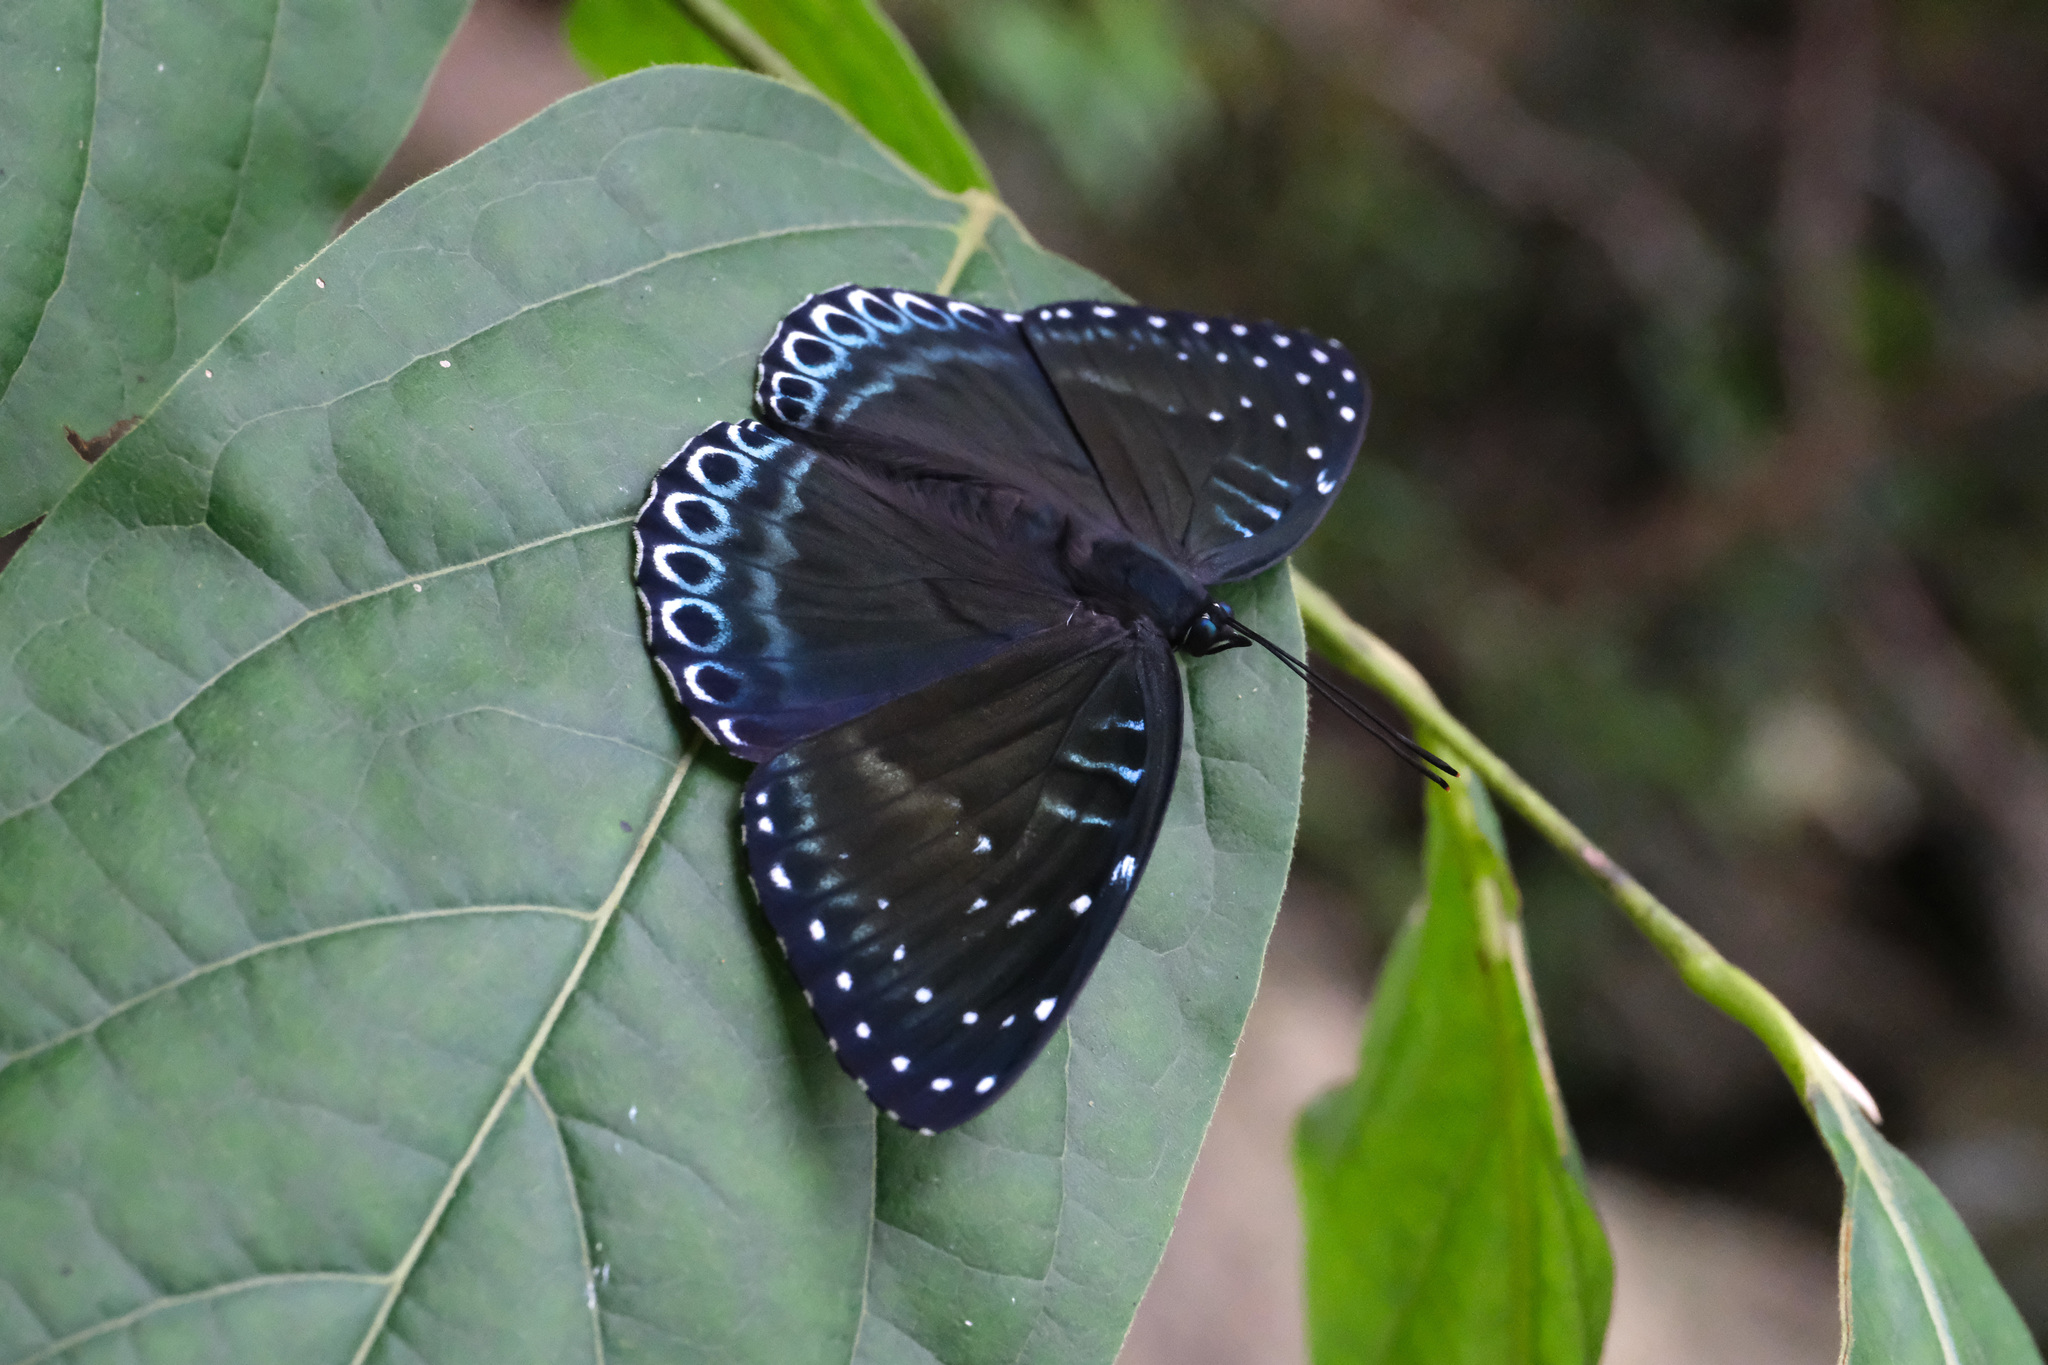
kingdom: Animalia
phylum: Arthropoda
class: Insecta
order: Lepidoptera
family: Nymphalidae
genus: Stibochiona
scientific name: Stibochiona nicea
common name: Popinjay
